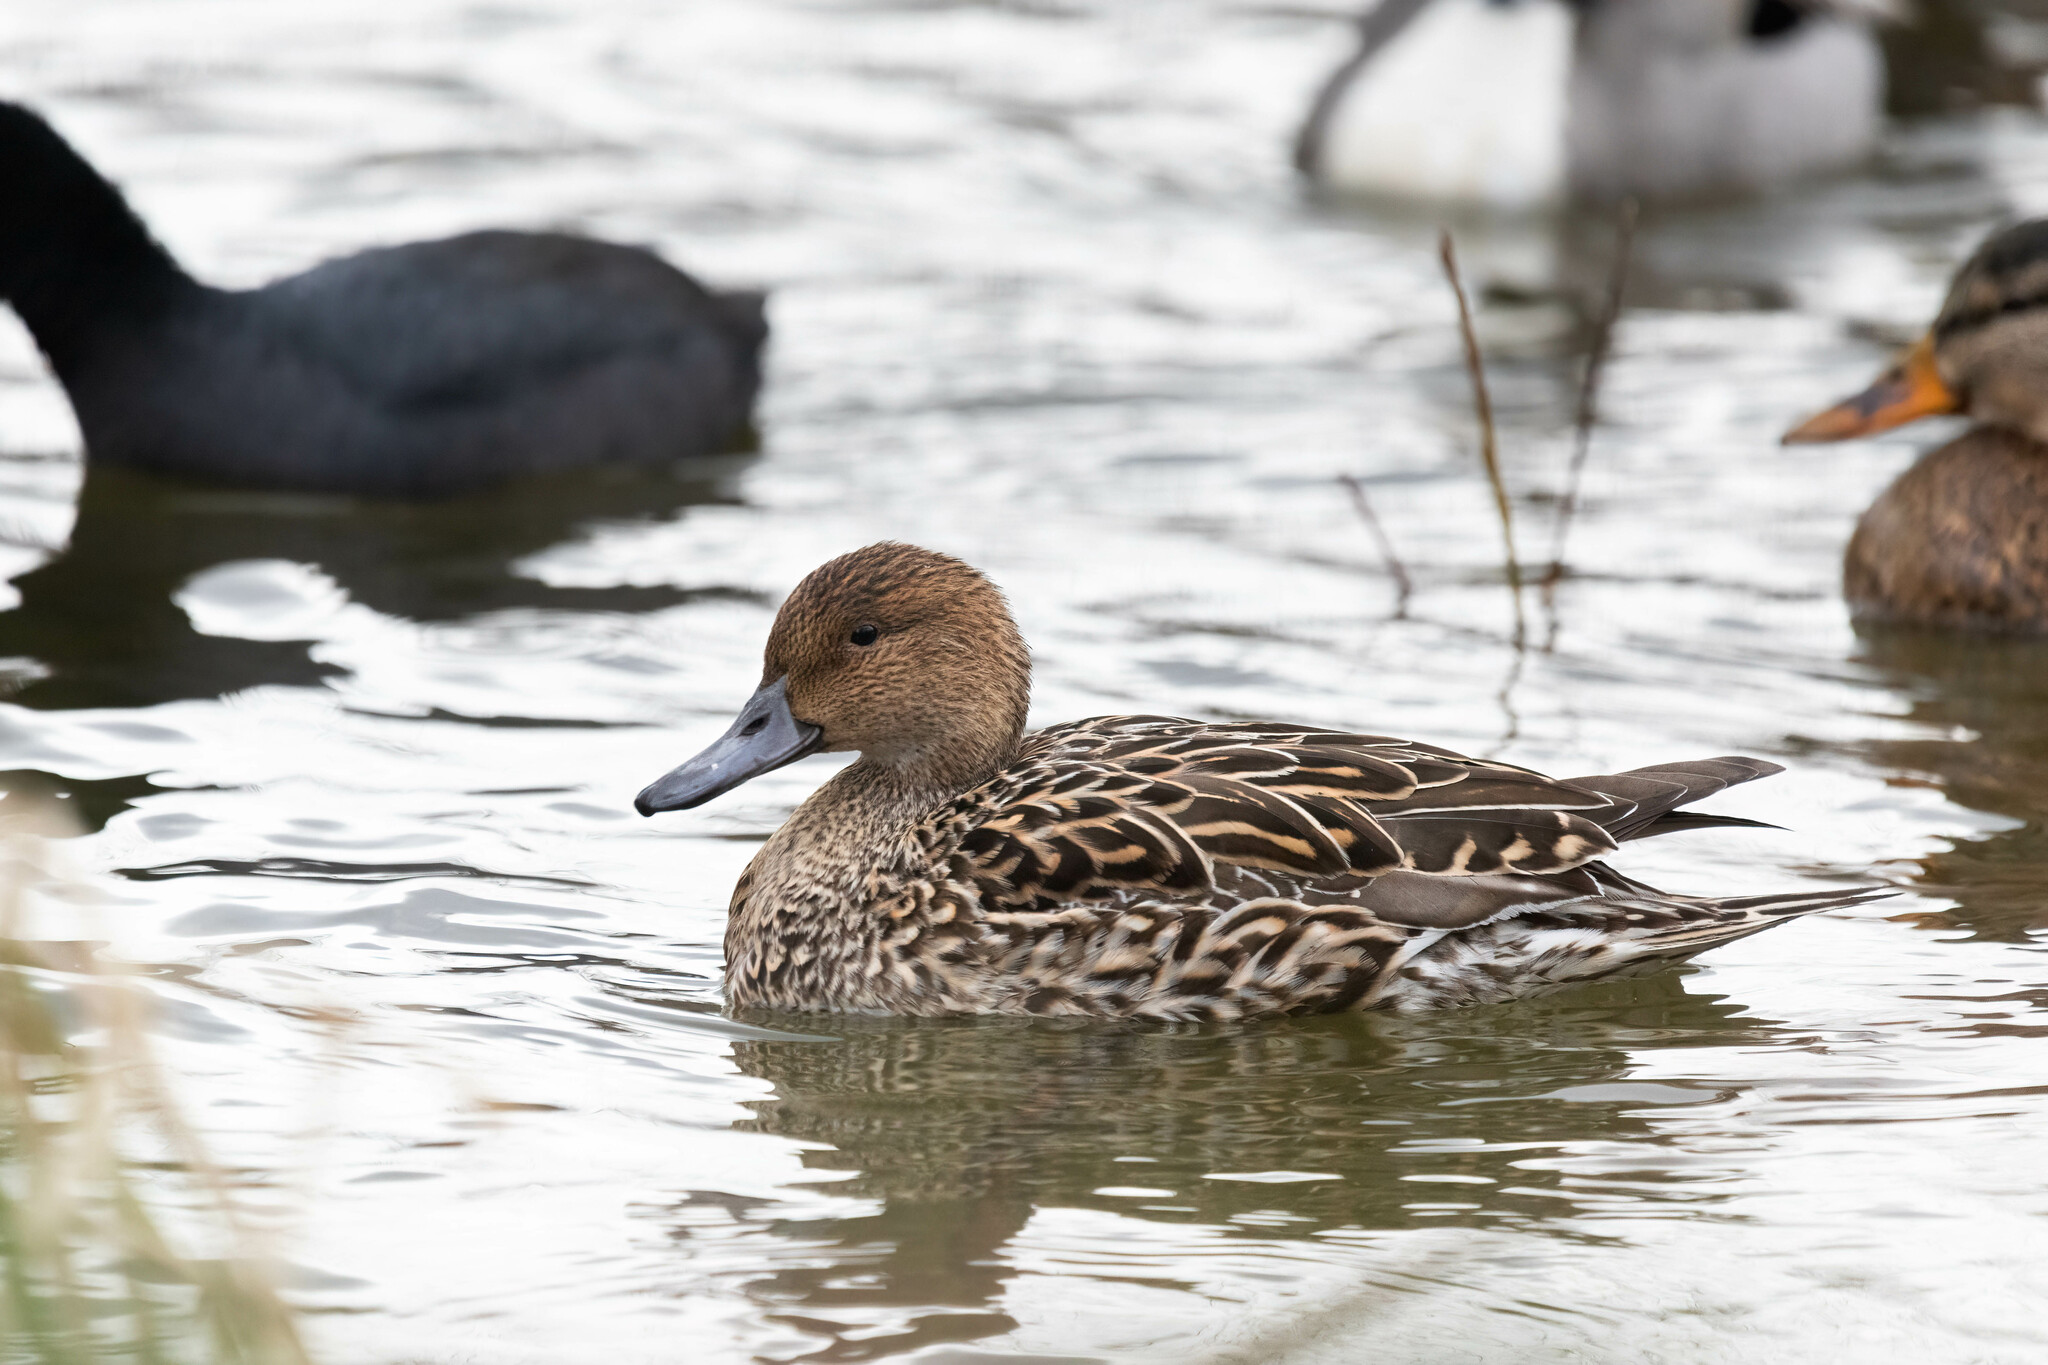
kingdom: Animalia
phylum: Chordata
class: Aves
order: Anseriformes
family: Anatidae
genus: Anas
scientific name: Anas acuta
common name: Northern pintail
